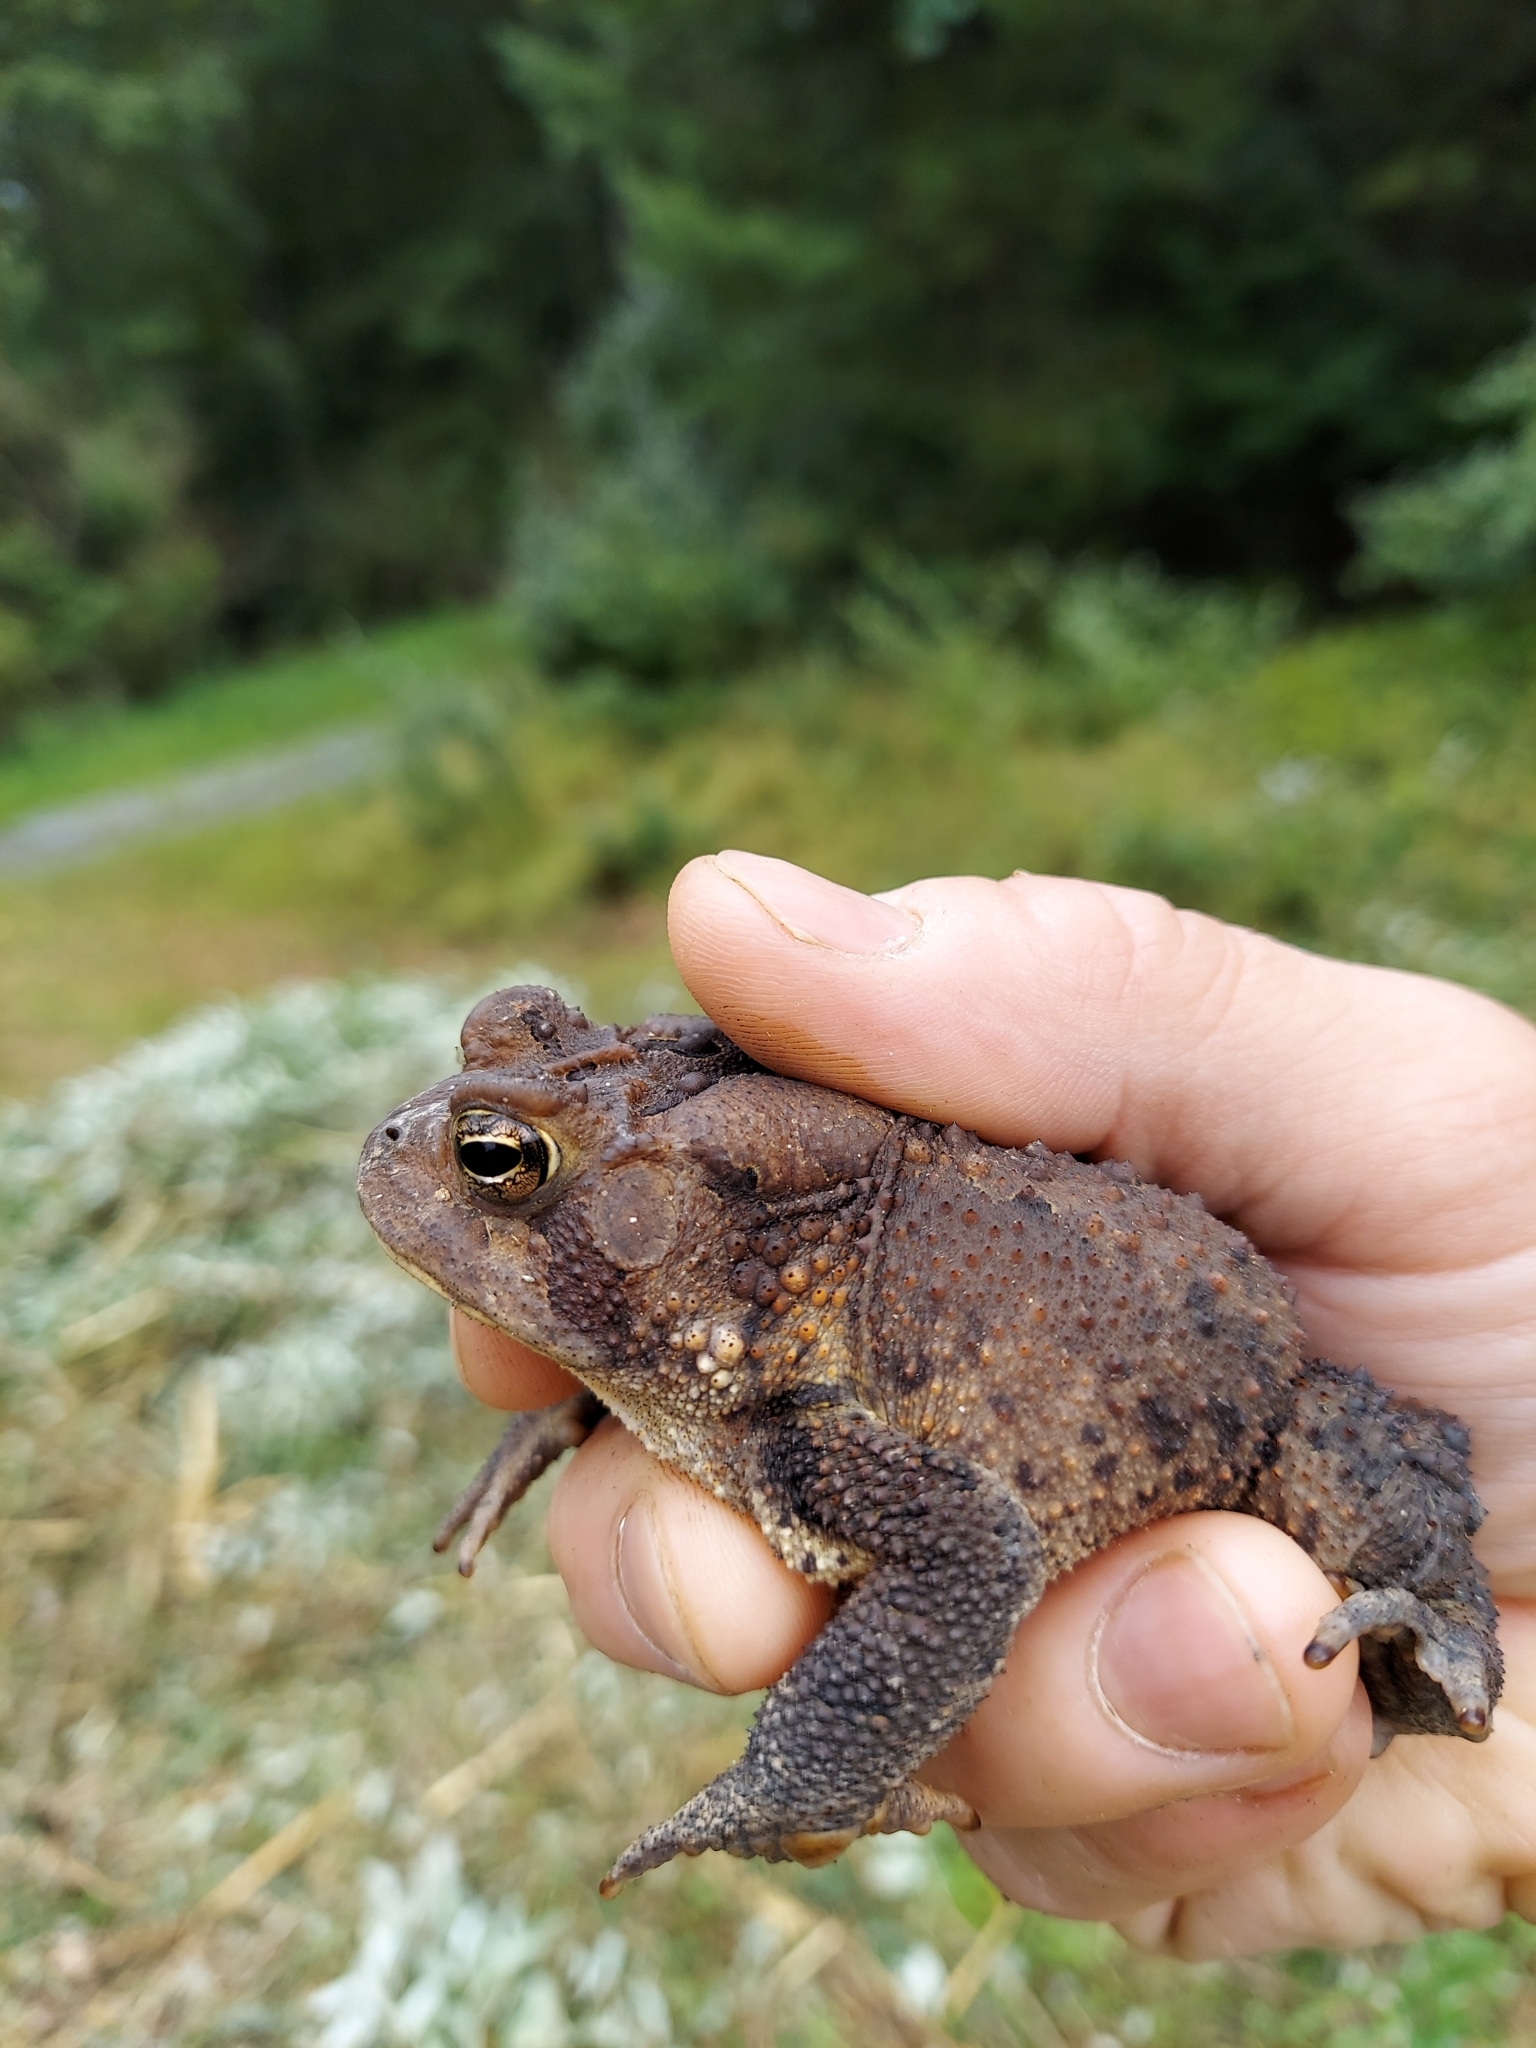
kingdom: Animalia
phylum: Chordata
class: Amphibia
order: Anura
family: Bufonidae
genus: Anaxyrus
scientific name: Anaxyrus americanus
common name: American toad
